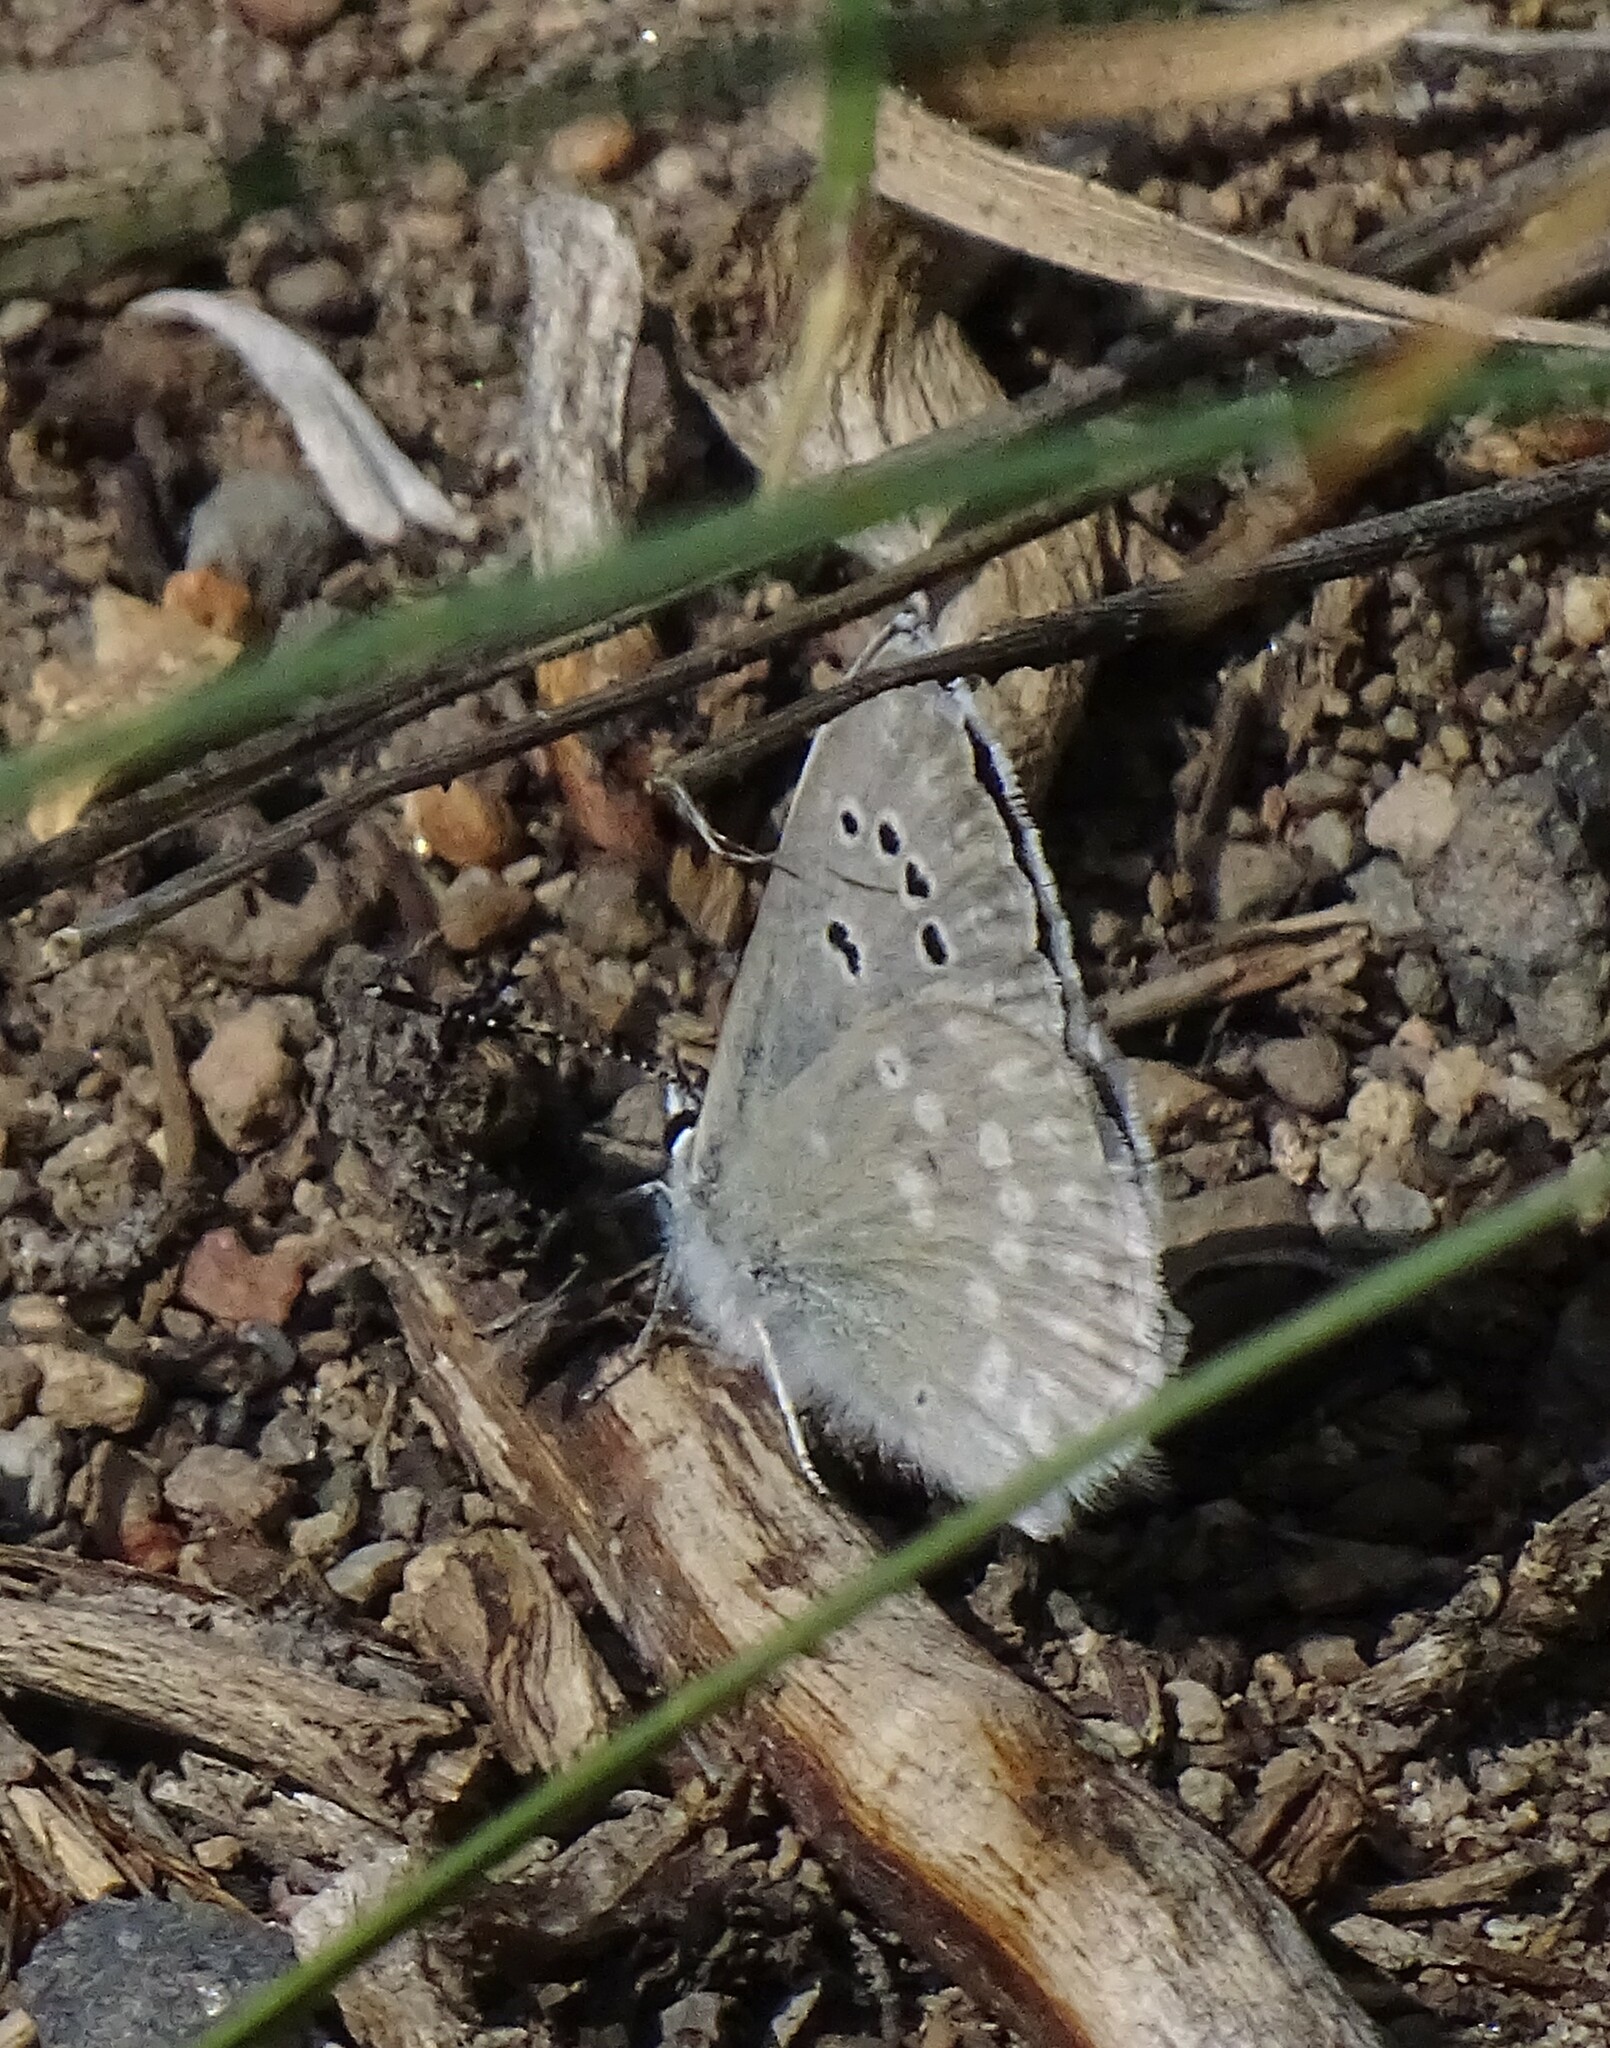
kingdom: Animalia
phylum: Arthropoda
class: Insecta
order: Lepidoptera
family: Lycaenidae
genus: Icaricia
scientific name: Icaricia icarioides
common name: Boisduval's blue
